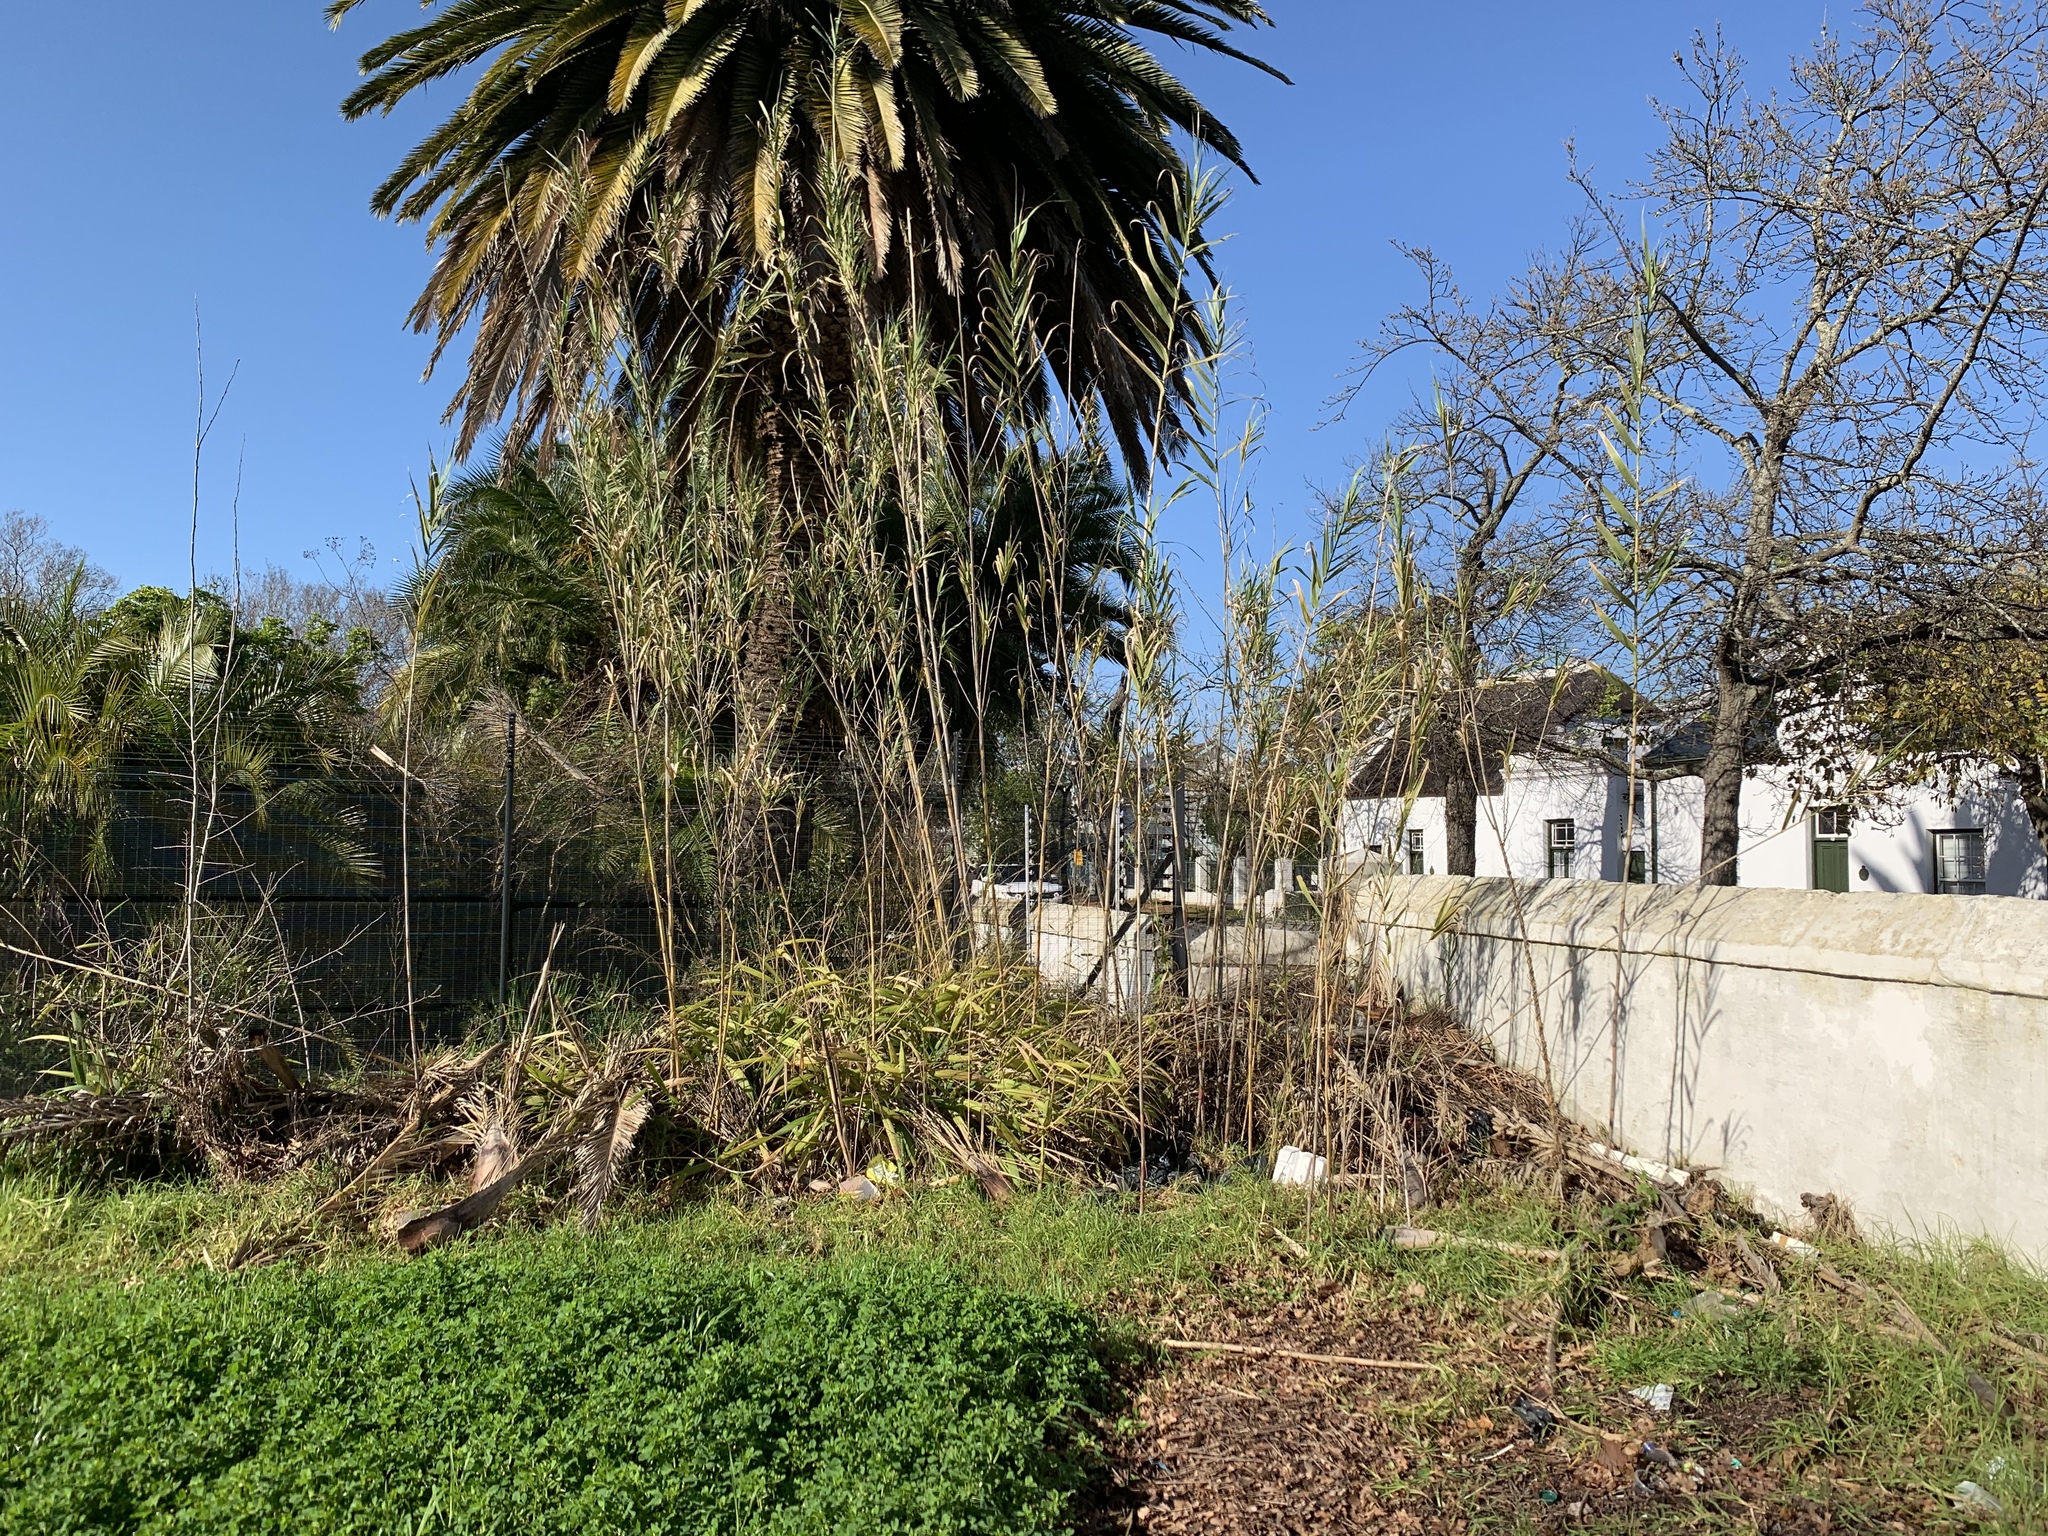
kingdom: Plantae
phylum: Tracheophyta
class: Liliopsida
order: Poales
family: Poaceae
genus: Arundo
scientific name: Arundo donax
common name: Giant reed
